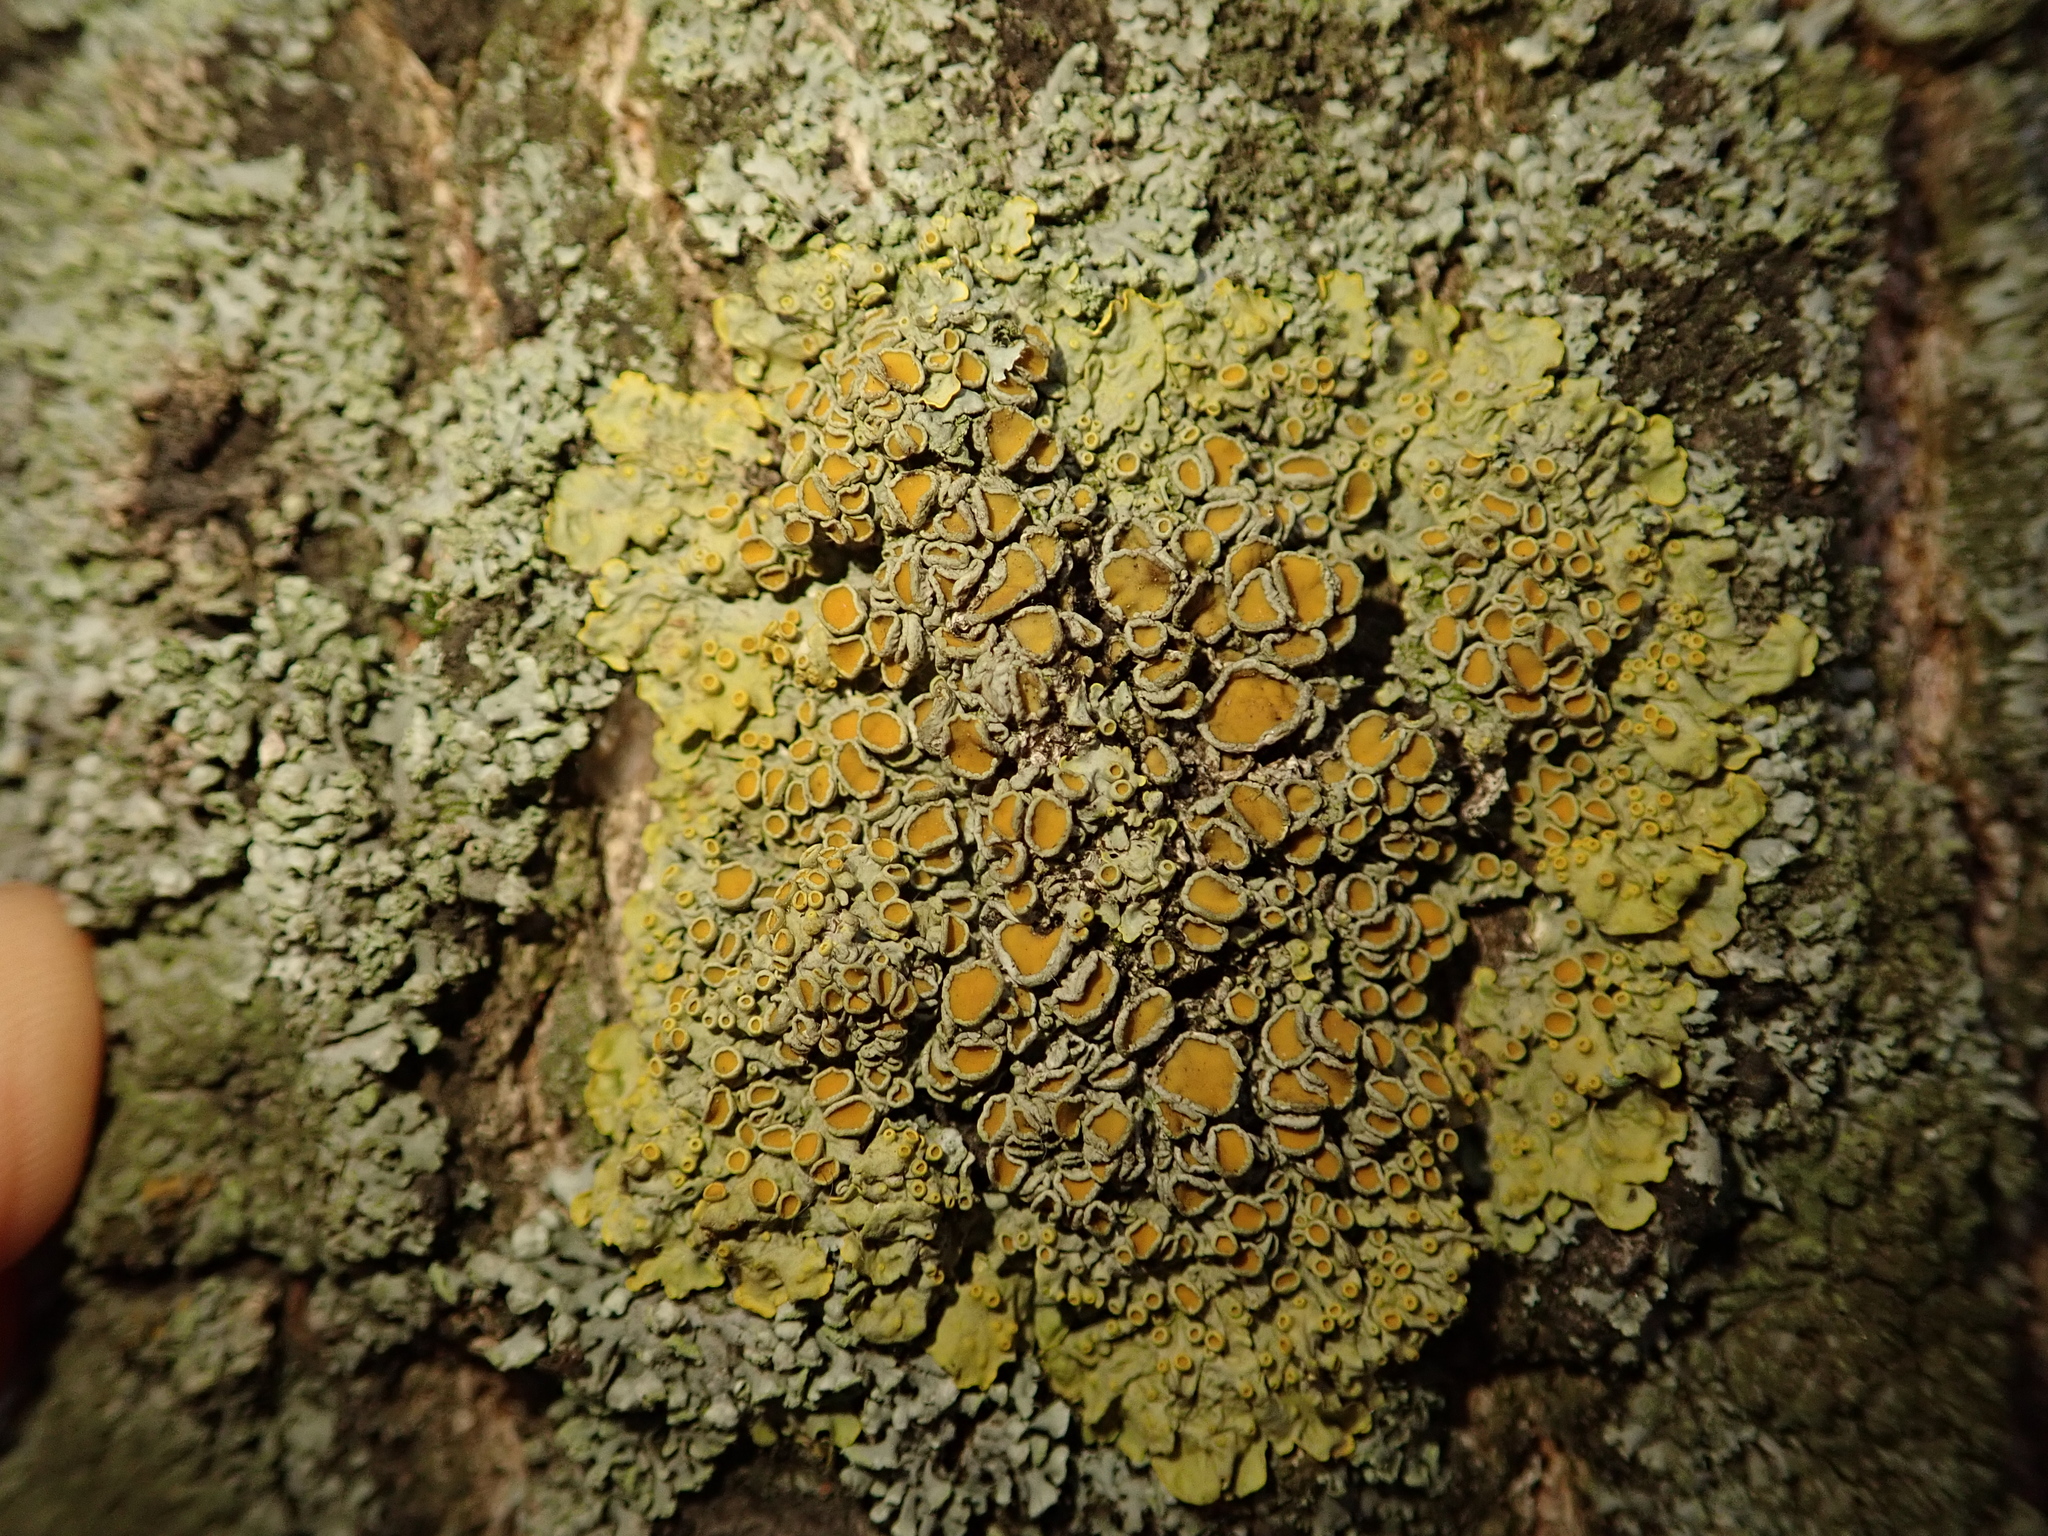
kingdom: Fungi
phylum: Ascomycota
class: Lecanoromycetes
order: Teloschistales
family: Teloschistaceae
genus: Xanthoria
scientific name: Xanthoria parietina
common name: Common orange lichen
